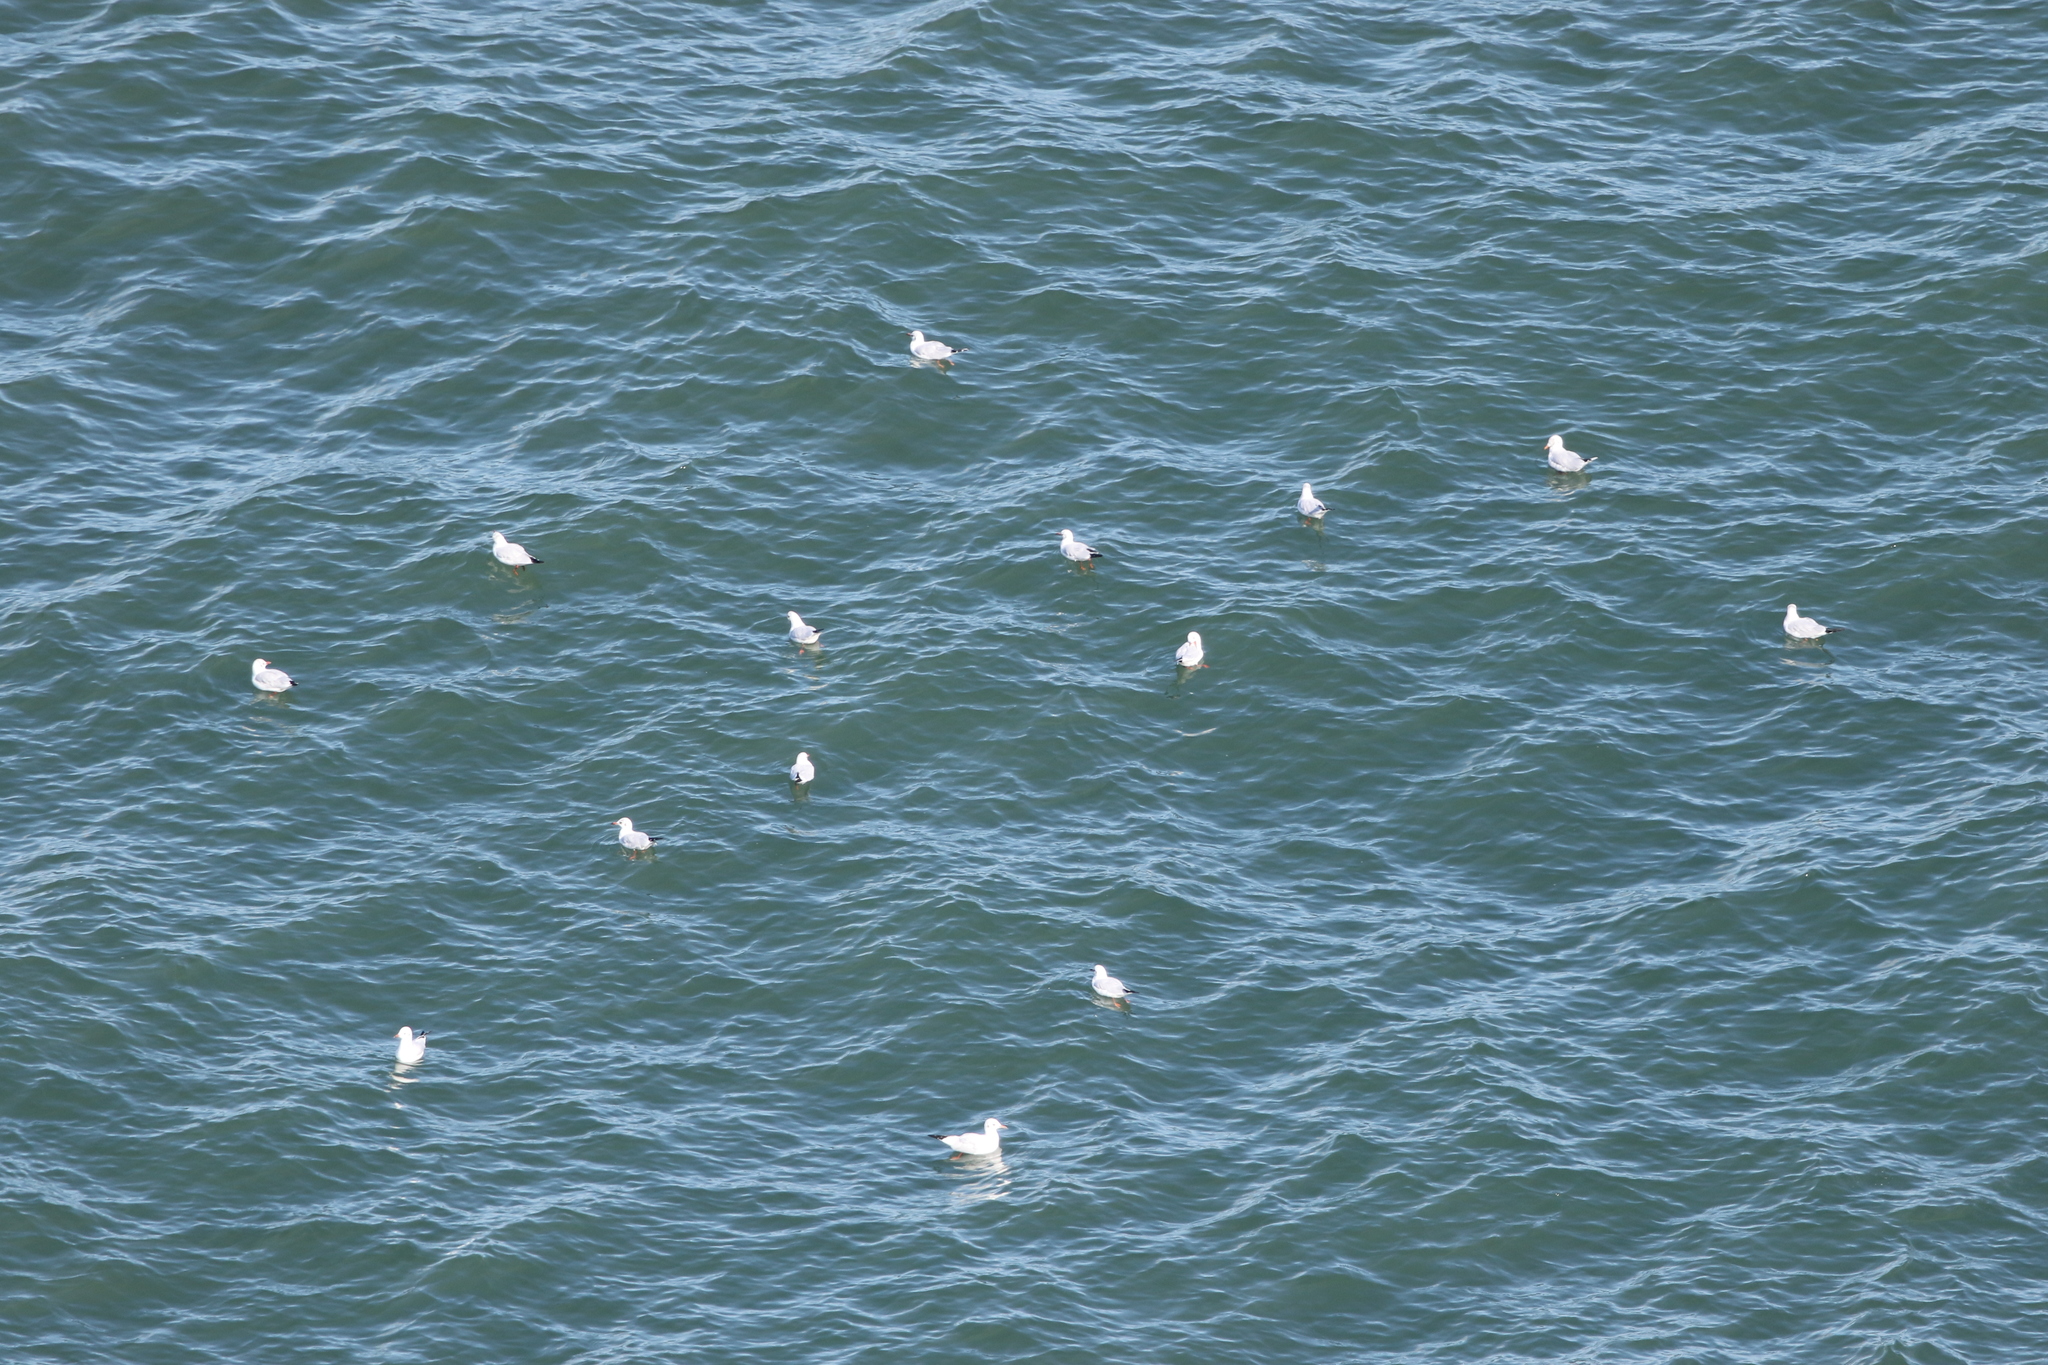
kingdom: Animalia
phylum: Chordata
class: Aves
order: Charadriiformes
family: Laridae
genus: Chroicocephalus
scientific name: Chroicocephalus ridibundus
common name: Black-headed gull
